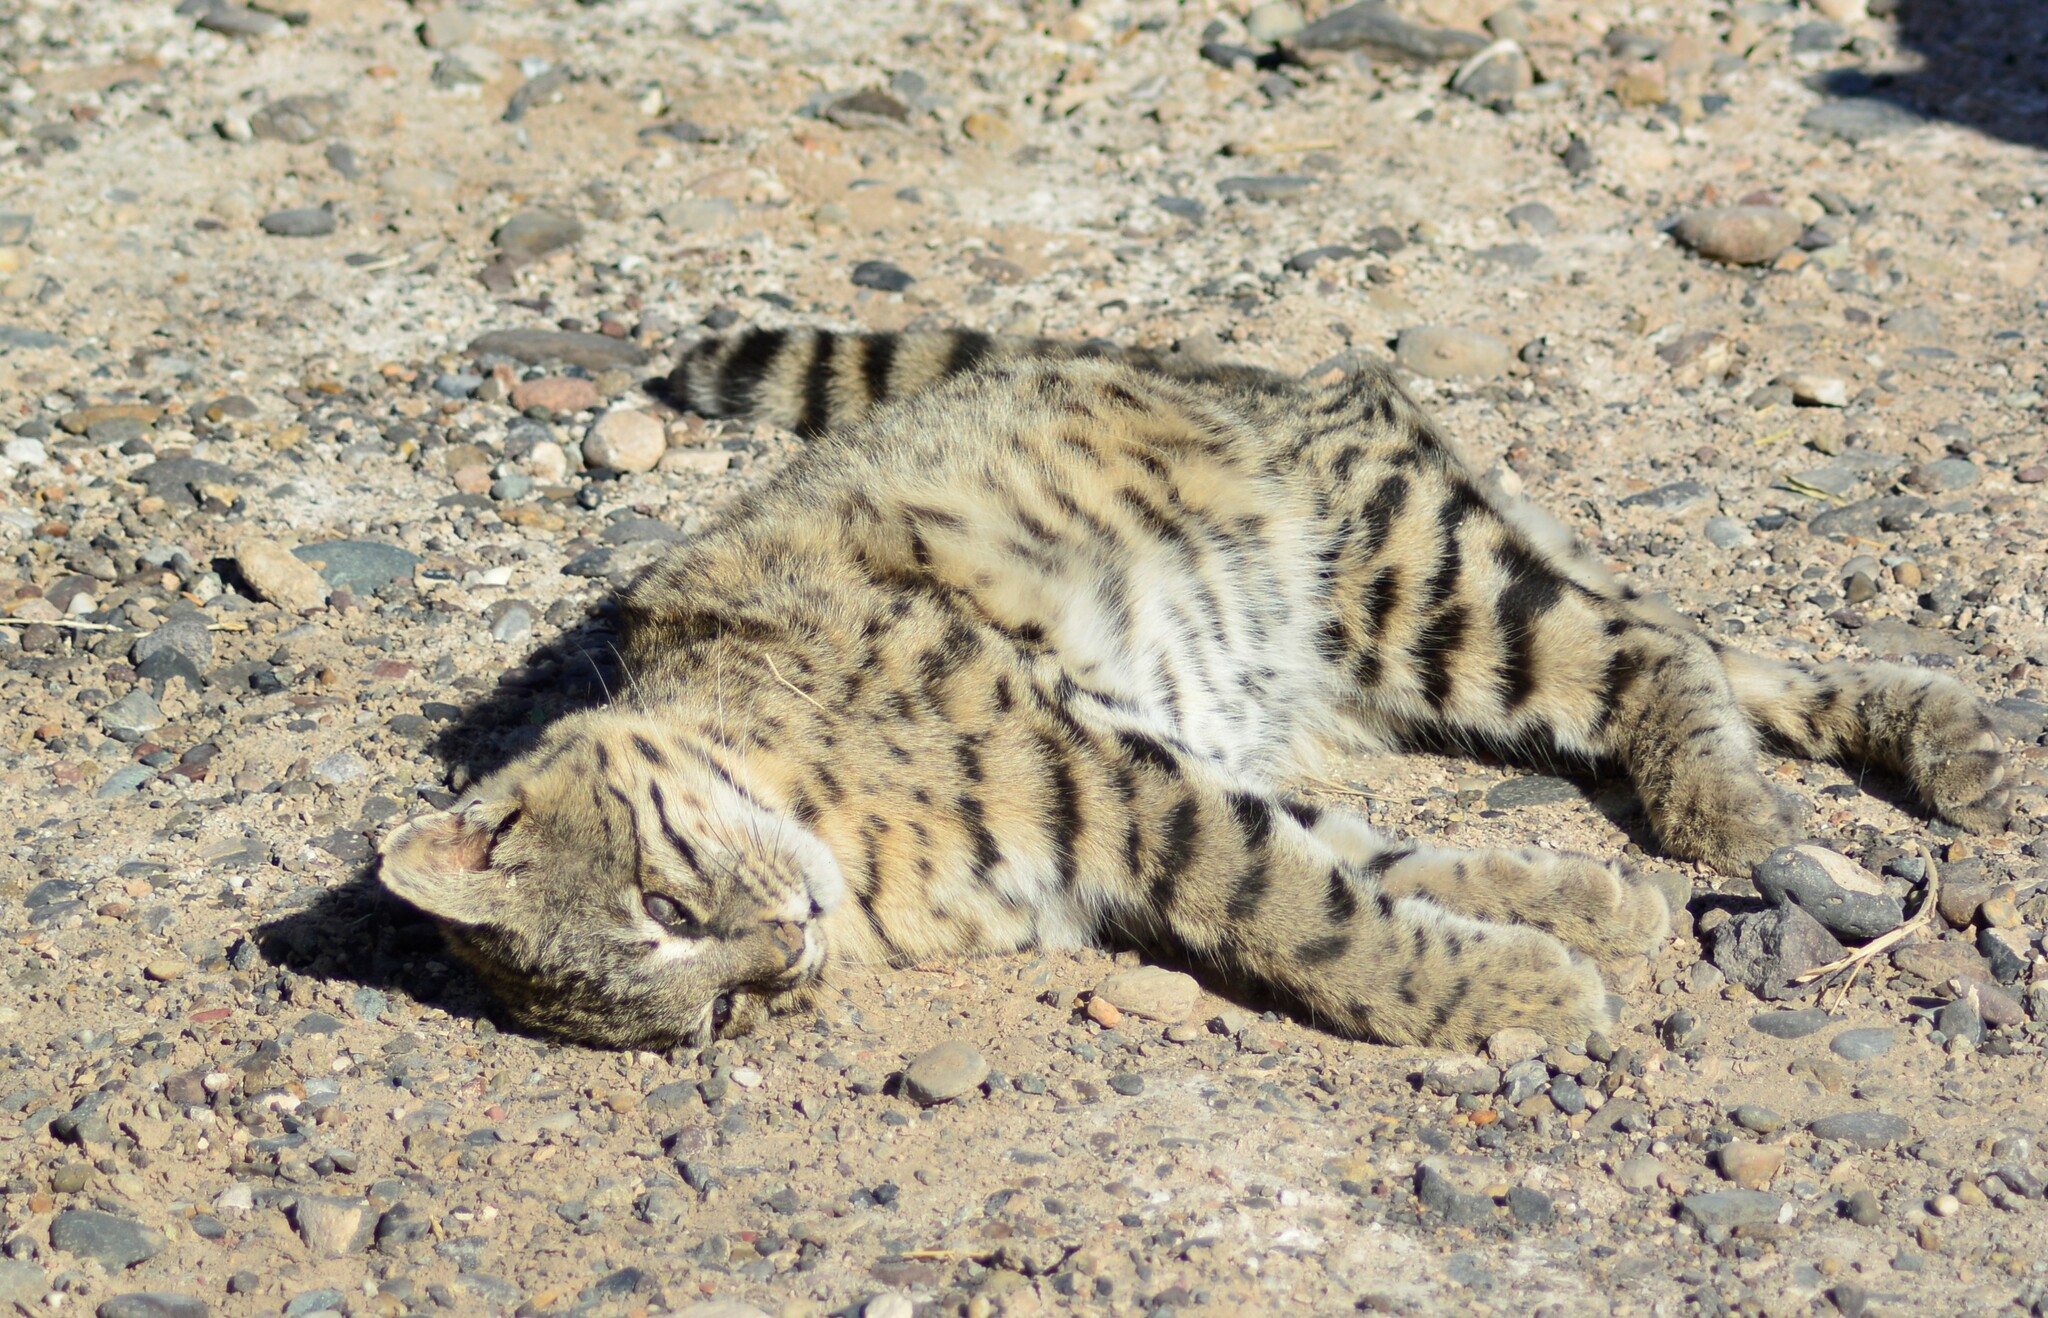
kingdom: Animalia
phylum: Chordata
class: Mammalia
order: Carnivora
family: Felidae
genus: Leopardus
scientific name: Leopardus geoffroyi
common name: Geoffroy's cat
